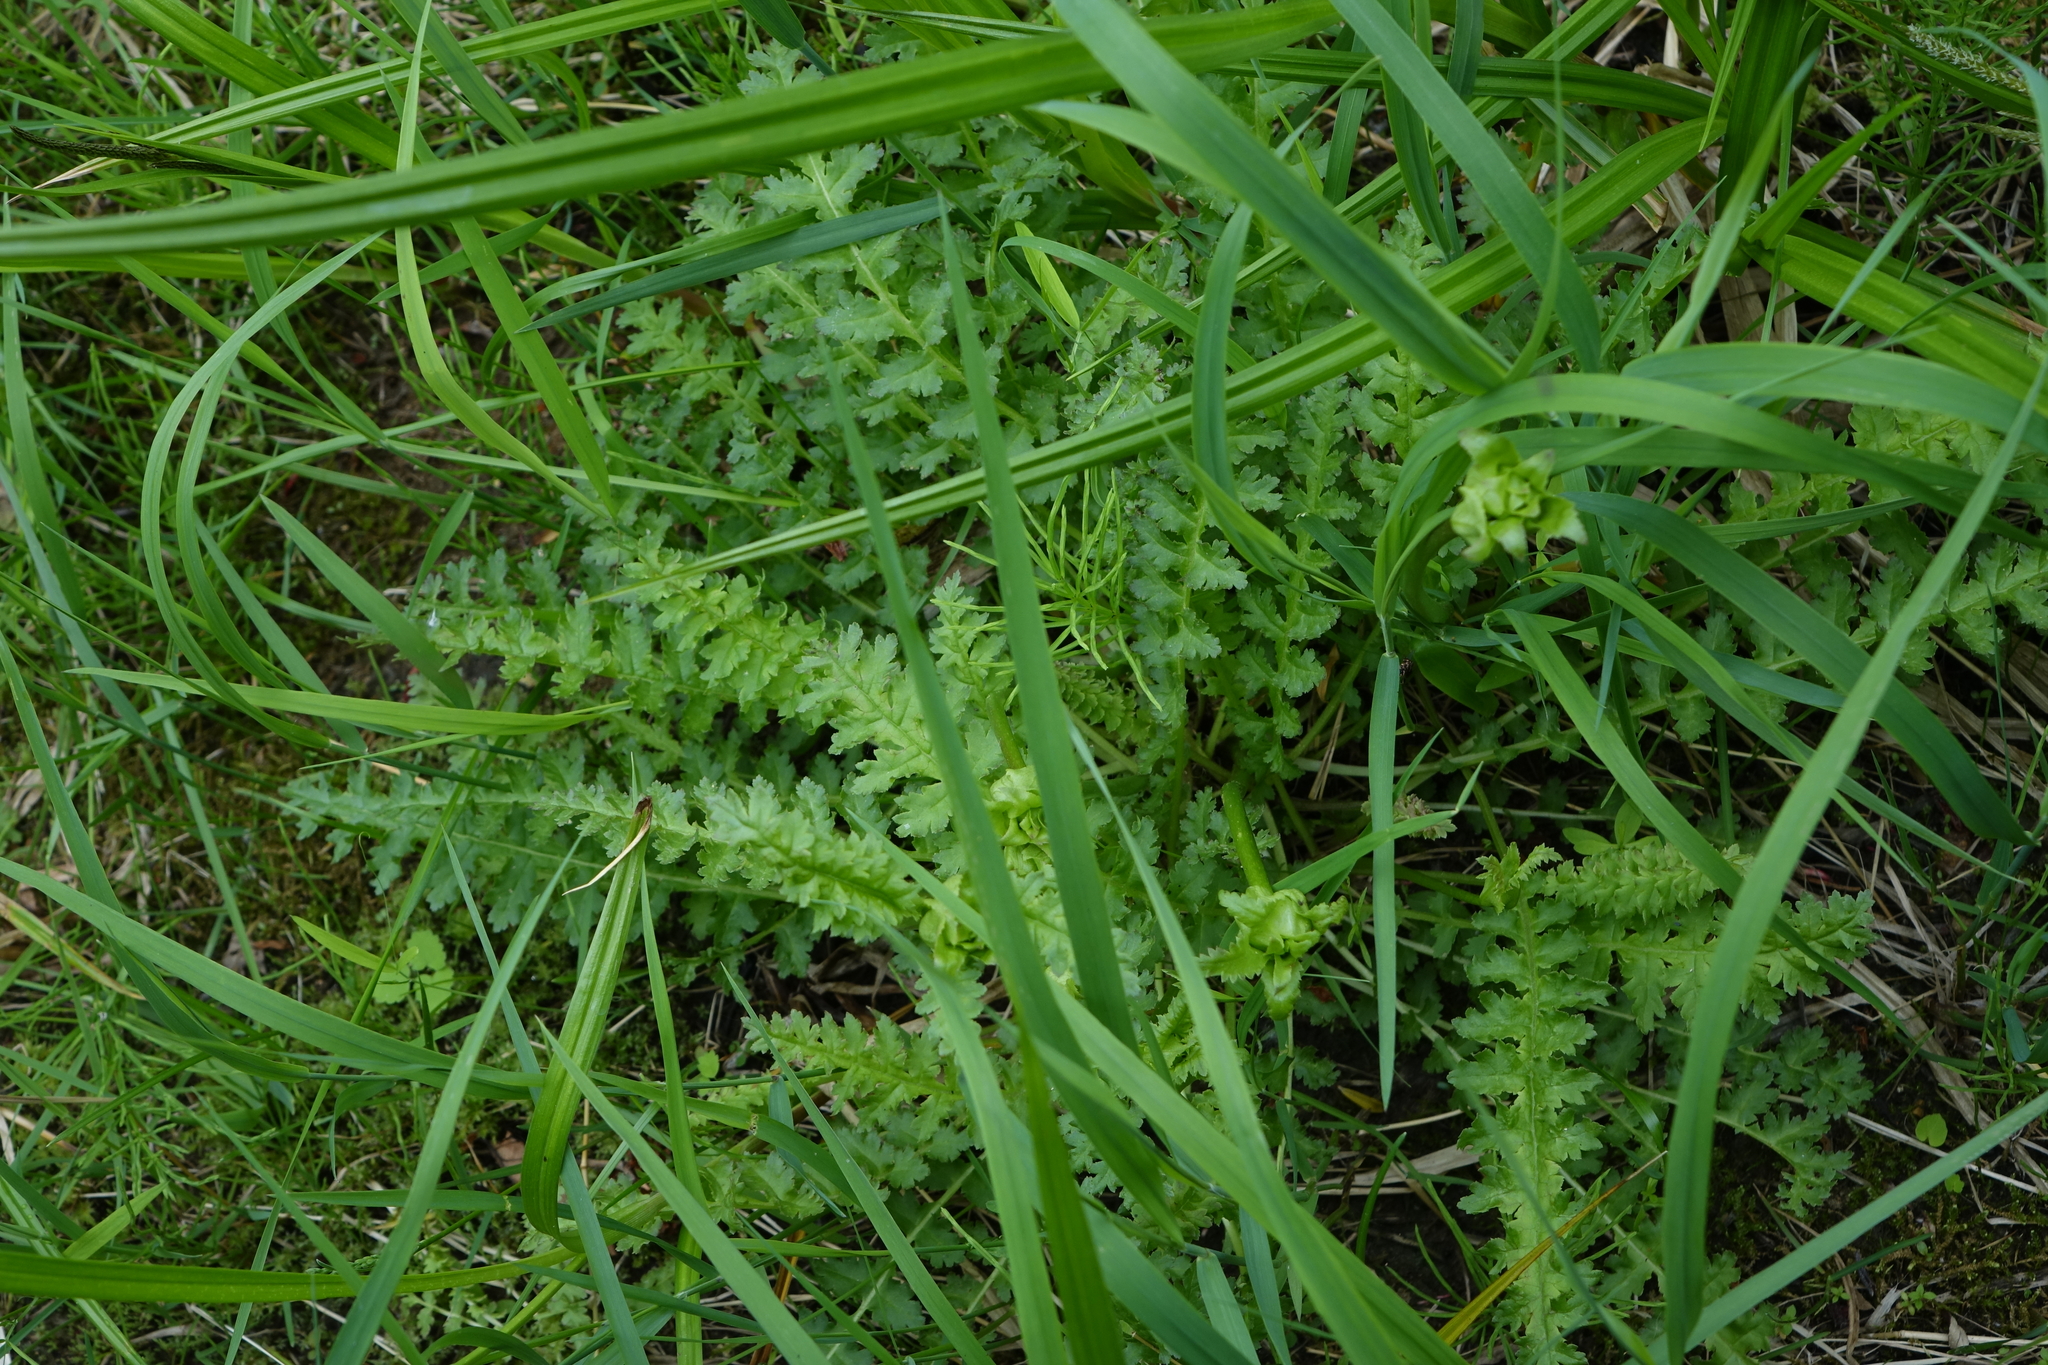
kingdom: Plantae
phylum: Tracheophyta
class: Magnoliopsida
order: Lamiales
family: Orobanchaceae
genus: Pedicularis
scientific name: Pedicularis sceptrum-carolinum
